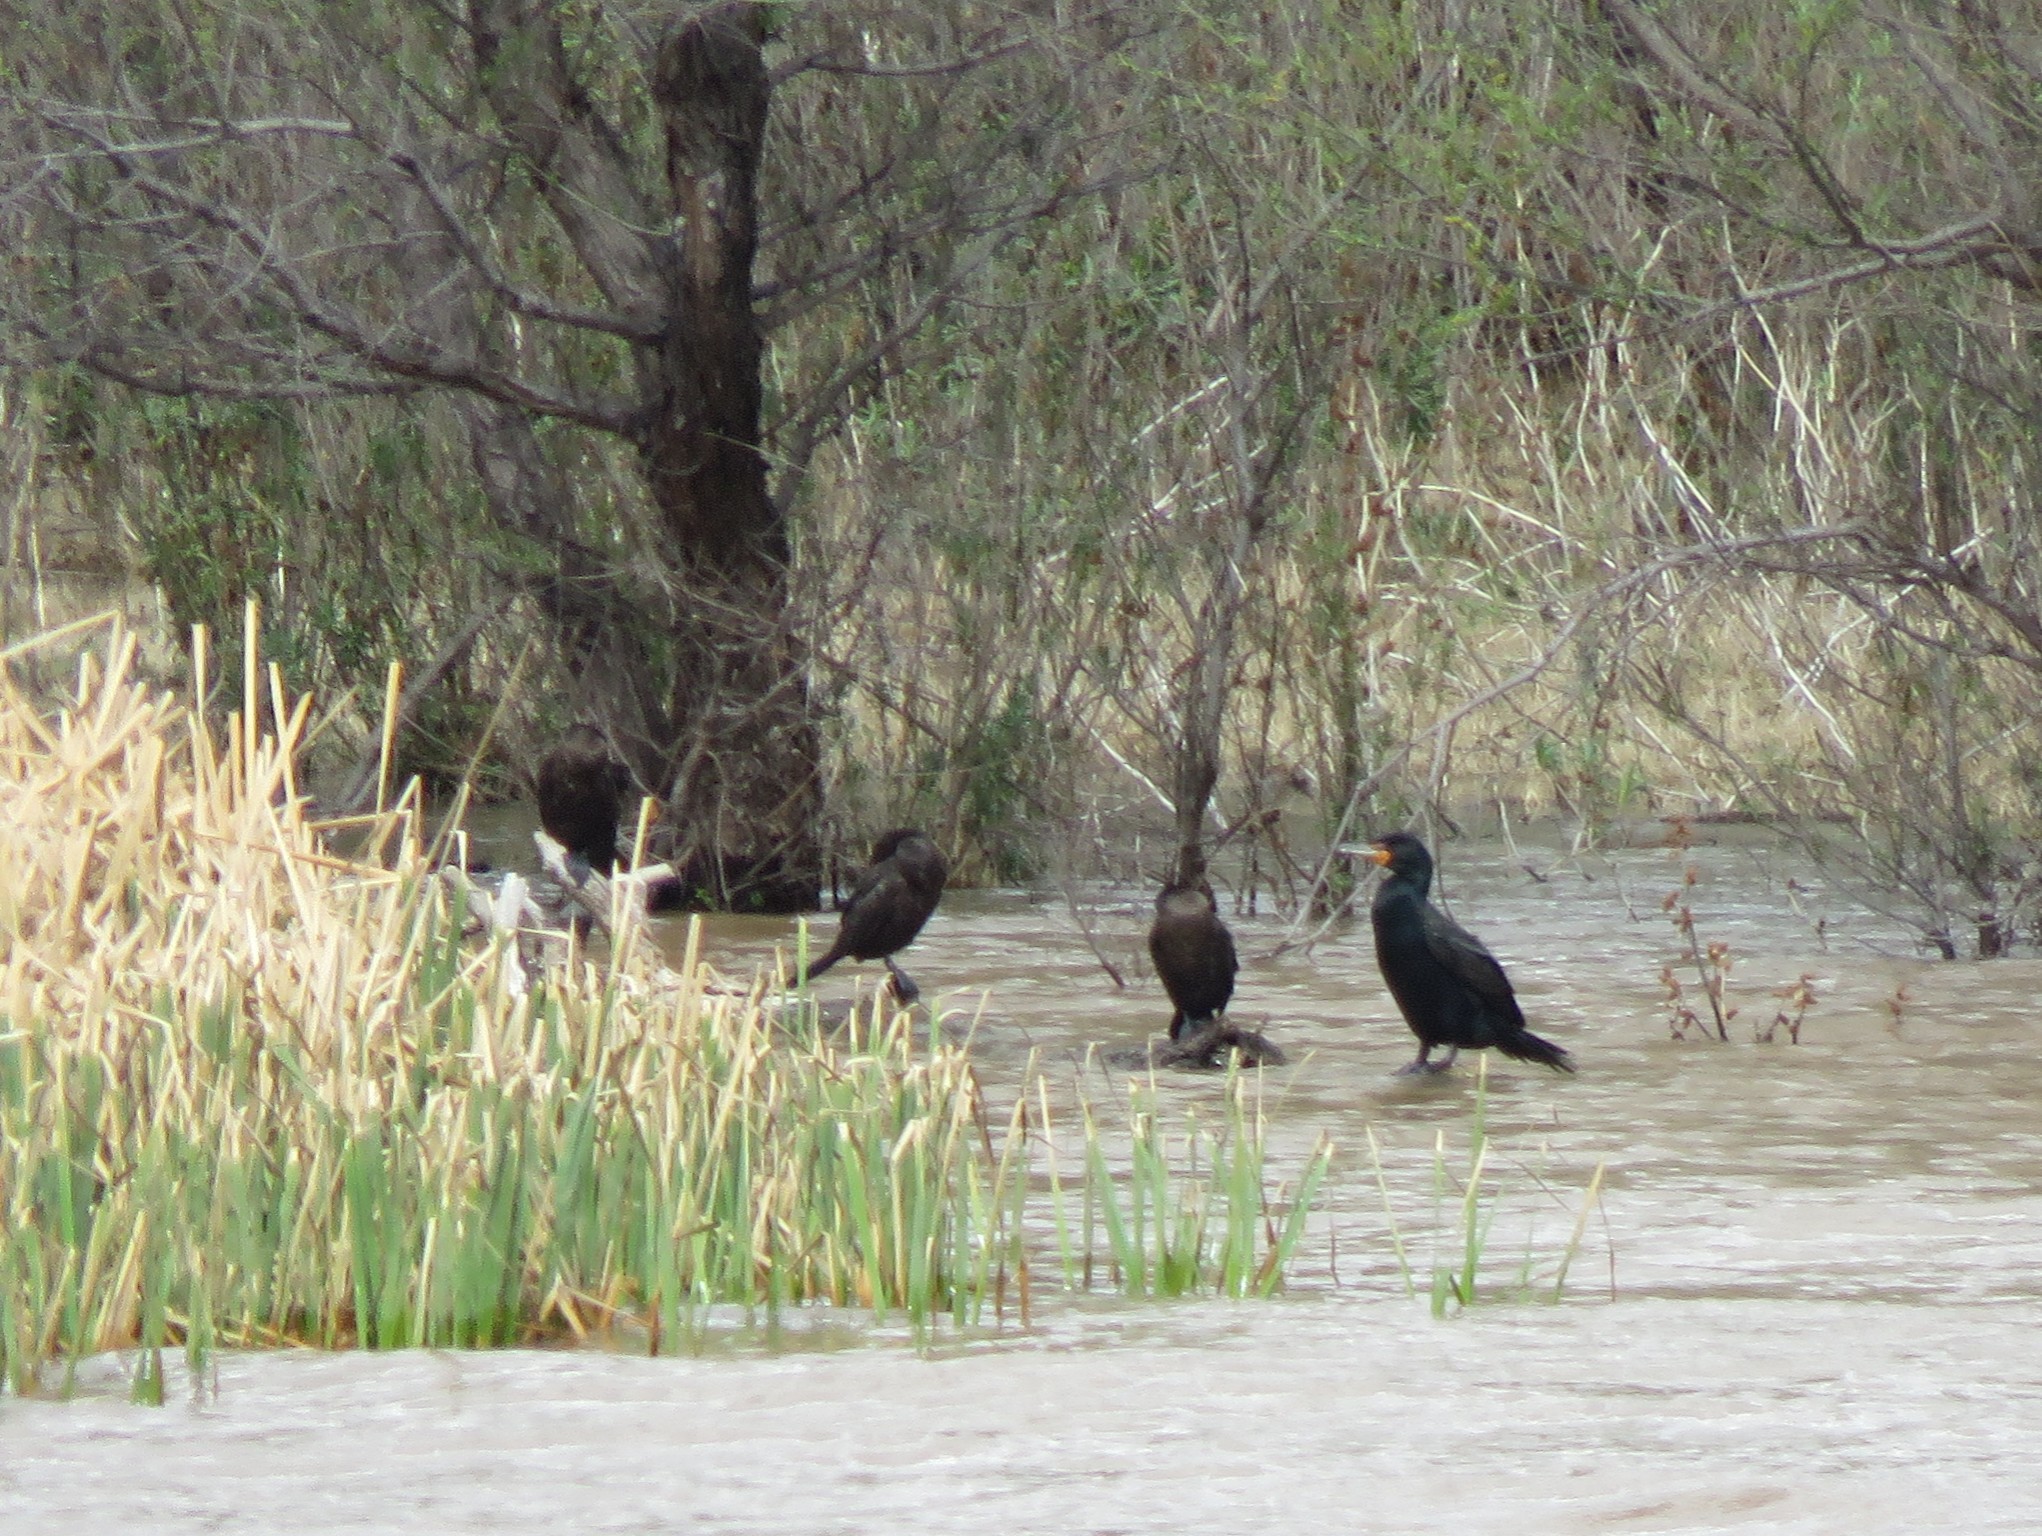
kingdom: Animalia
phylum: Chordata
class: Aves
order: Suliformes
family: Phalacrocoracidae
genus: Phalacrocorax
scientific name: Phalacrocorax auritus
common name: Double-crested cormorant
